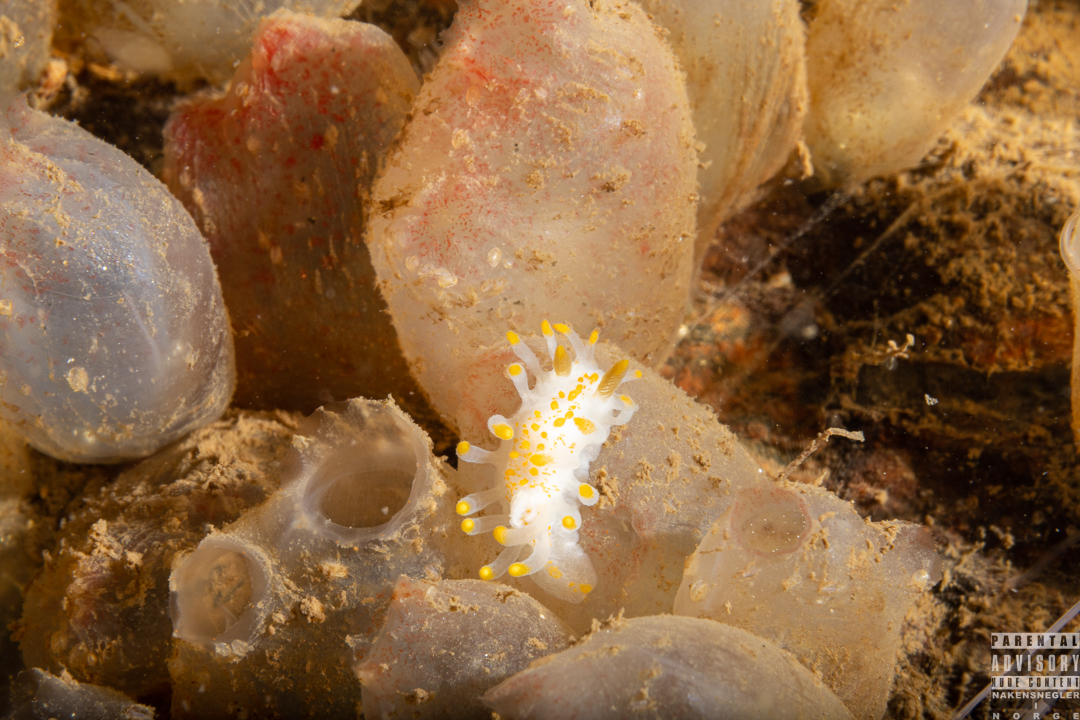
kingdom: Animalia
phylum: Mollusca
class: Gastropoda
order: Nudibranchia
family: Polyceridae
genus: Limacia
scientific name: Limacia clavigera
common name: Orange-clubbed sea slug
